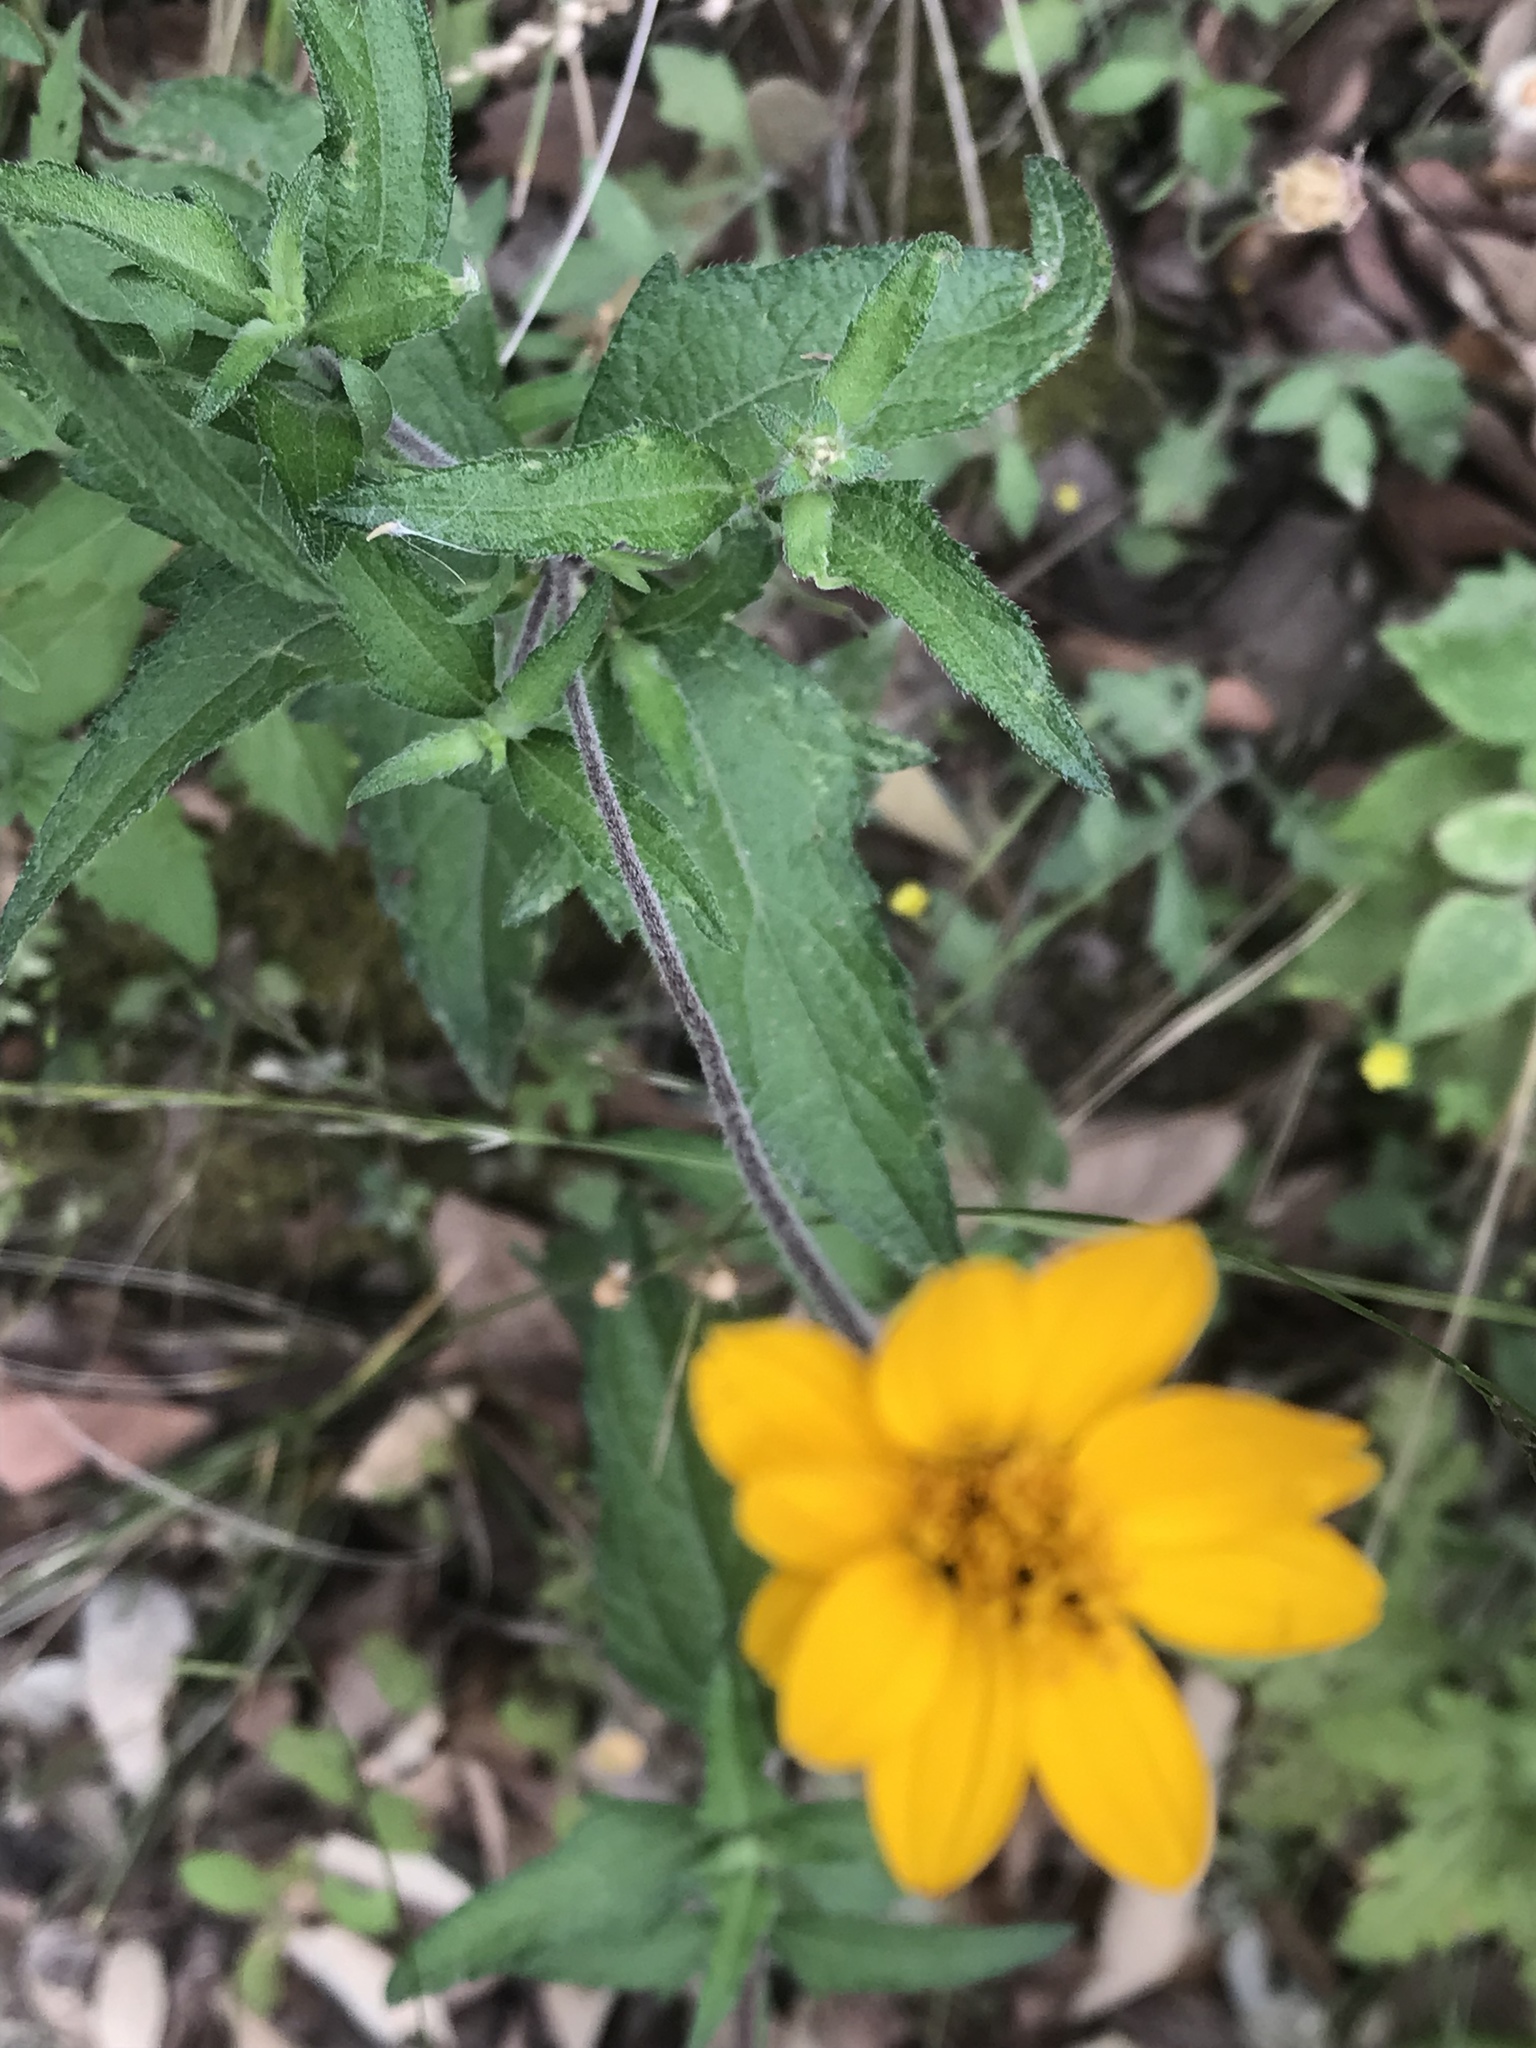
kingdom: Plantae
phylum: Tracheophyta
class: Magnoliopsida
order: Asterales
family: Asteraceae
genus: Wedelia
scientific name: Wedelia acapulcensis
